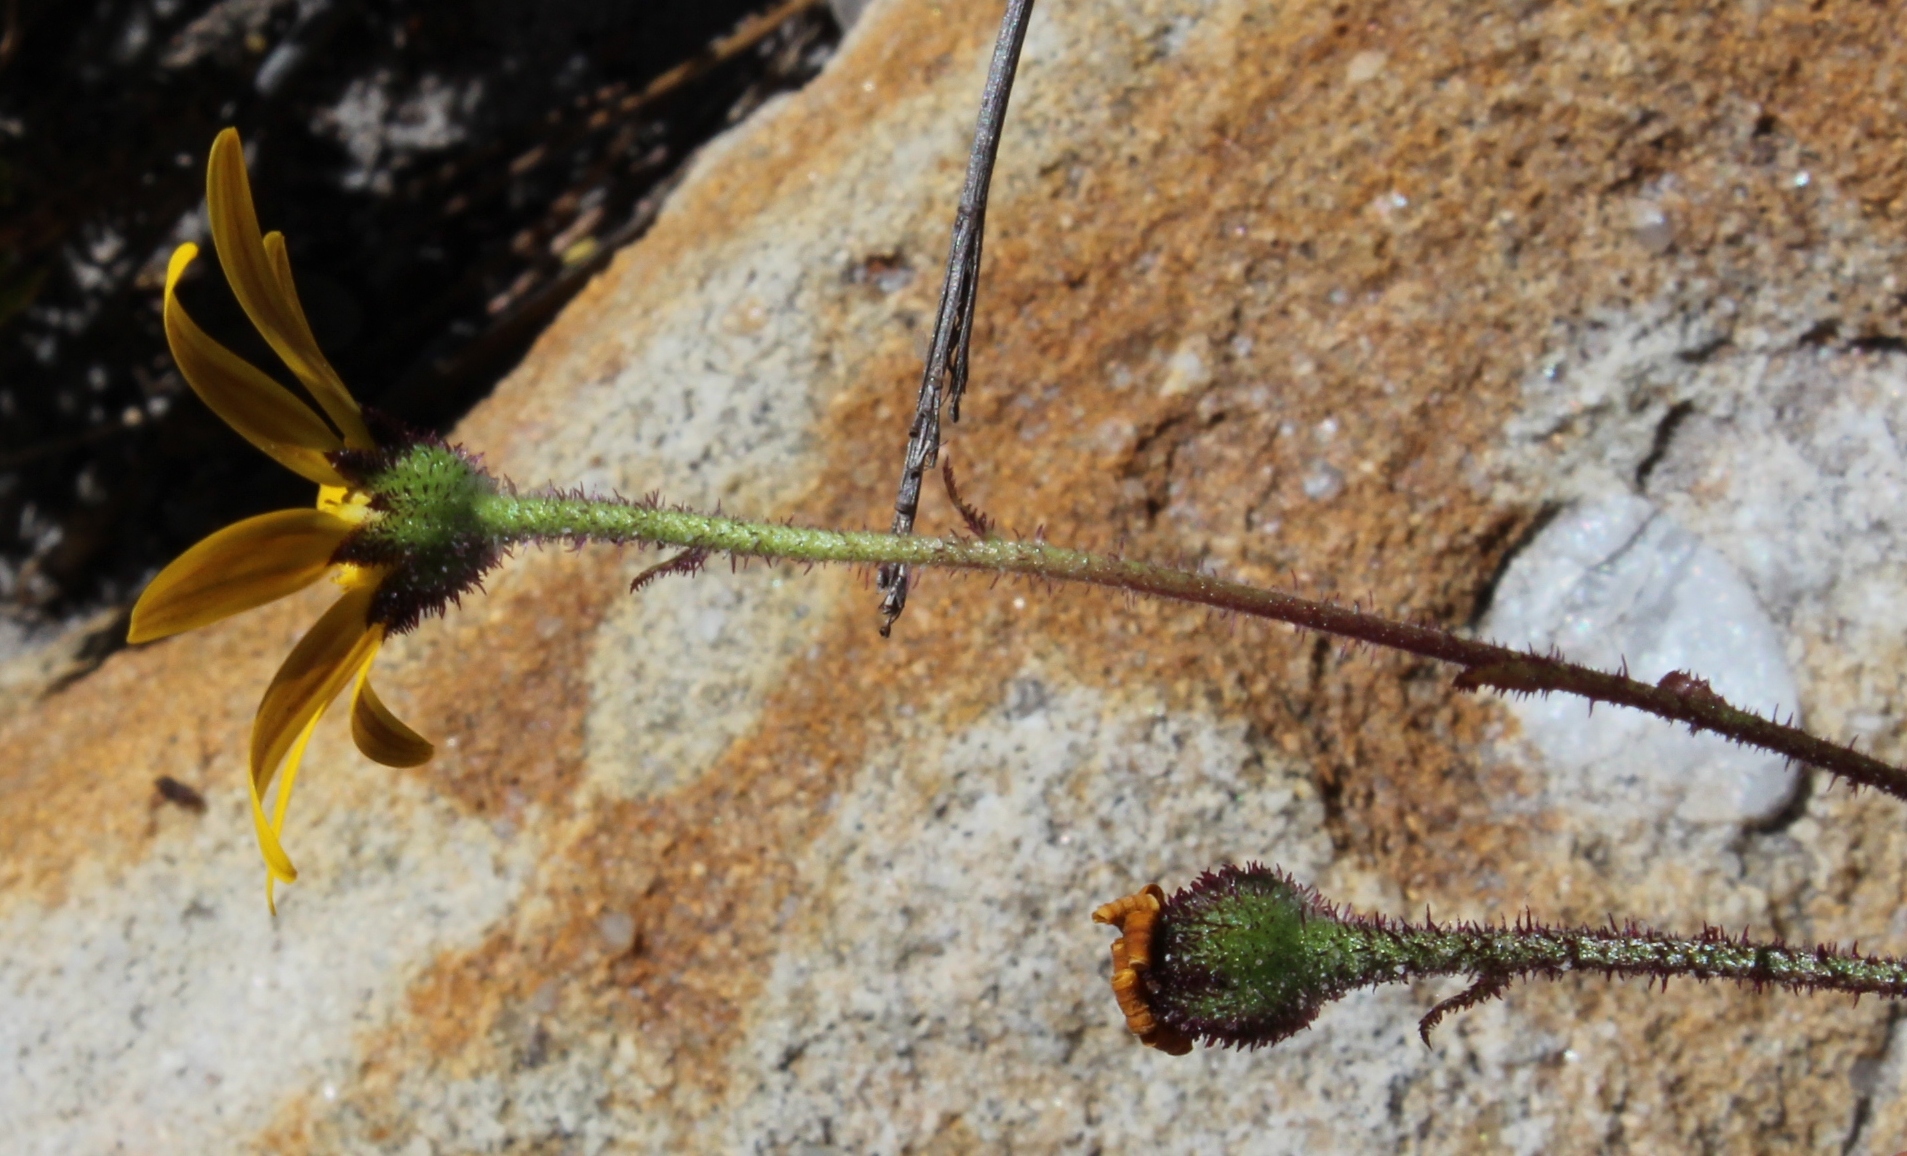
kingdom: Plantae
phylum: Tracheophyta
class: Magnoliopsida
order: Asterales
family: Asteraceae
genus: Osteospermum
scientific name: Osteospermum polygaloides
